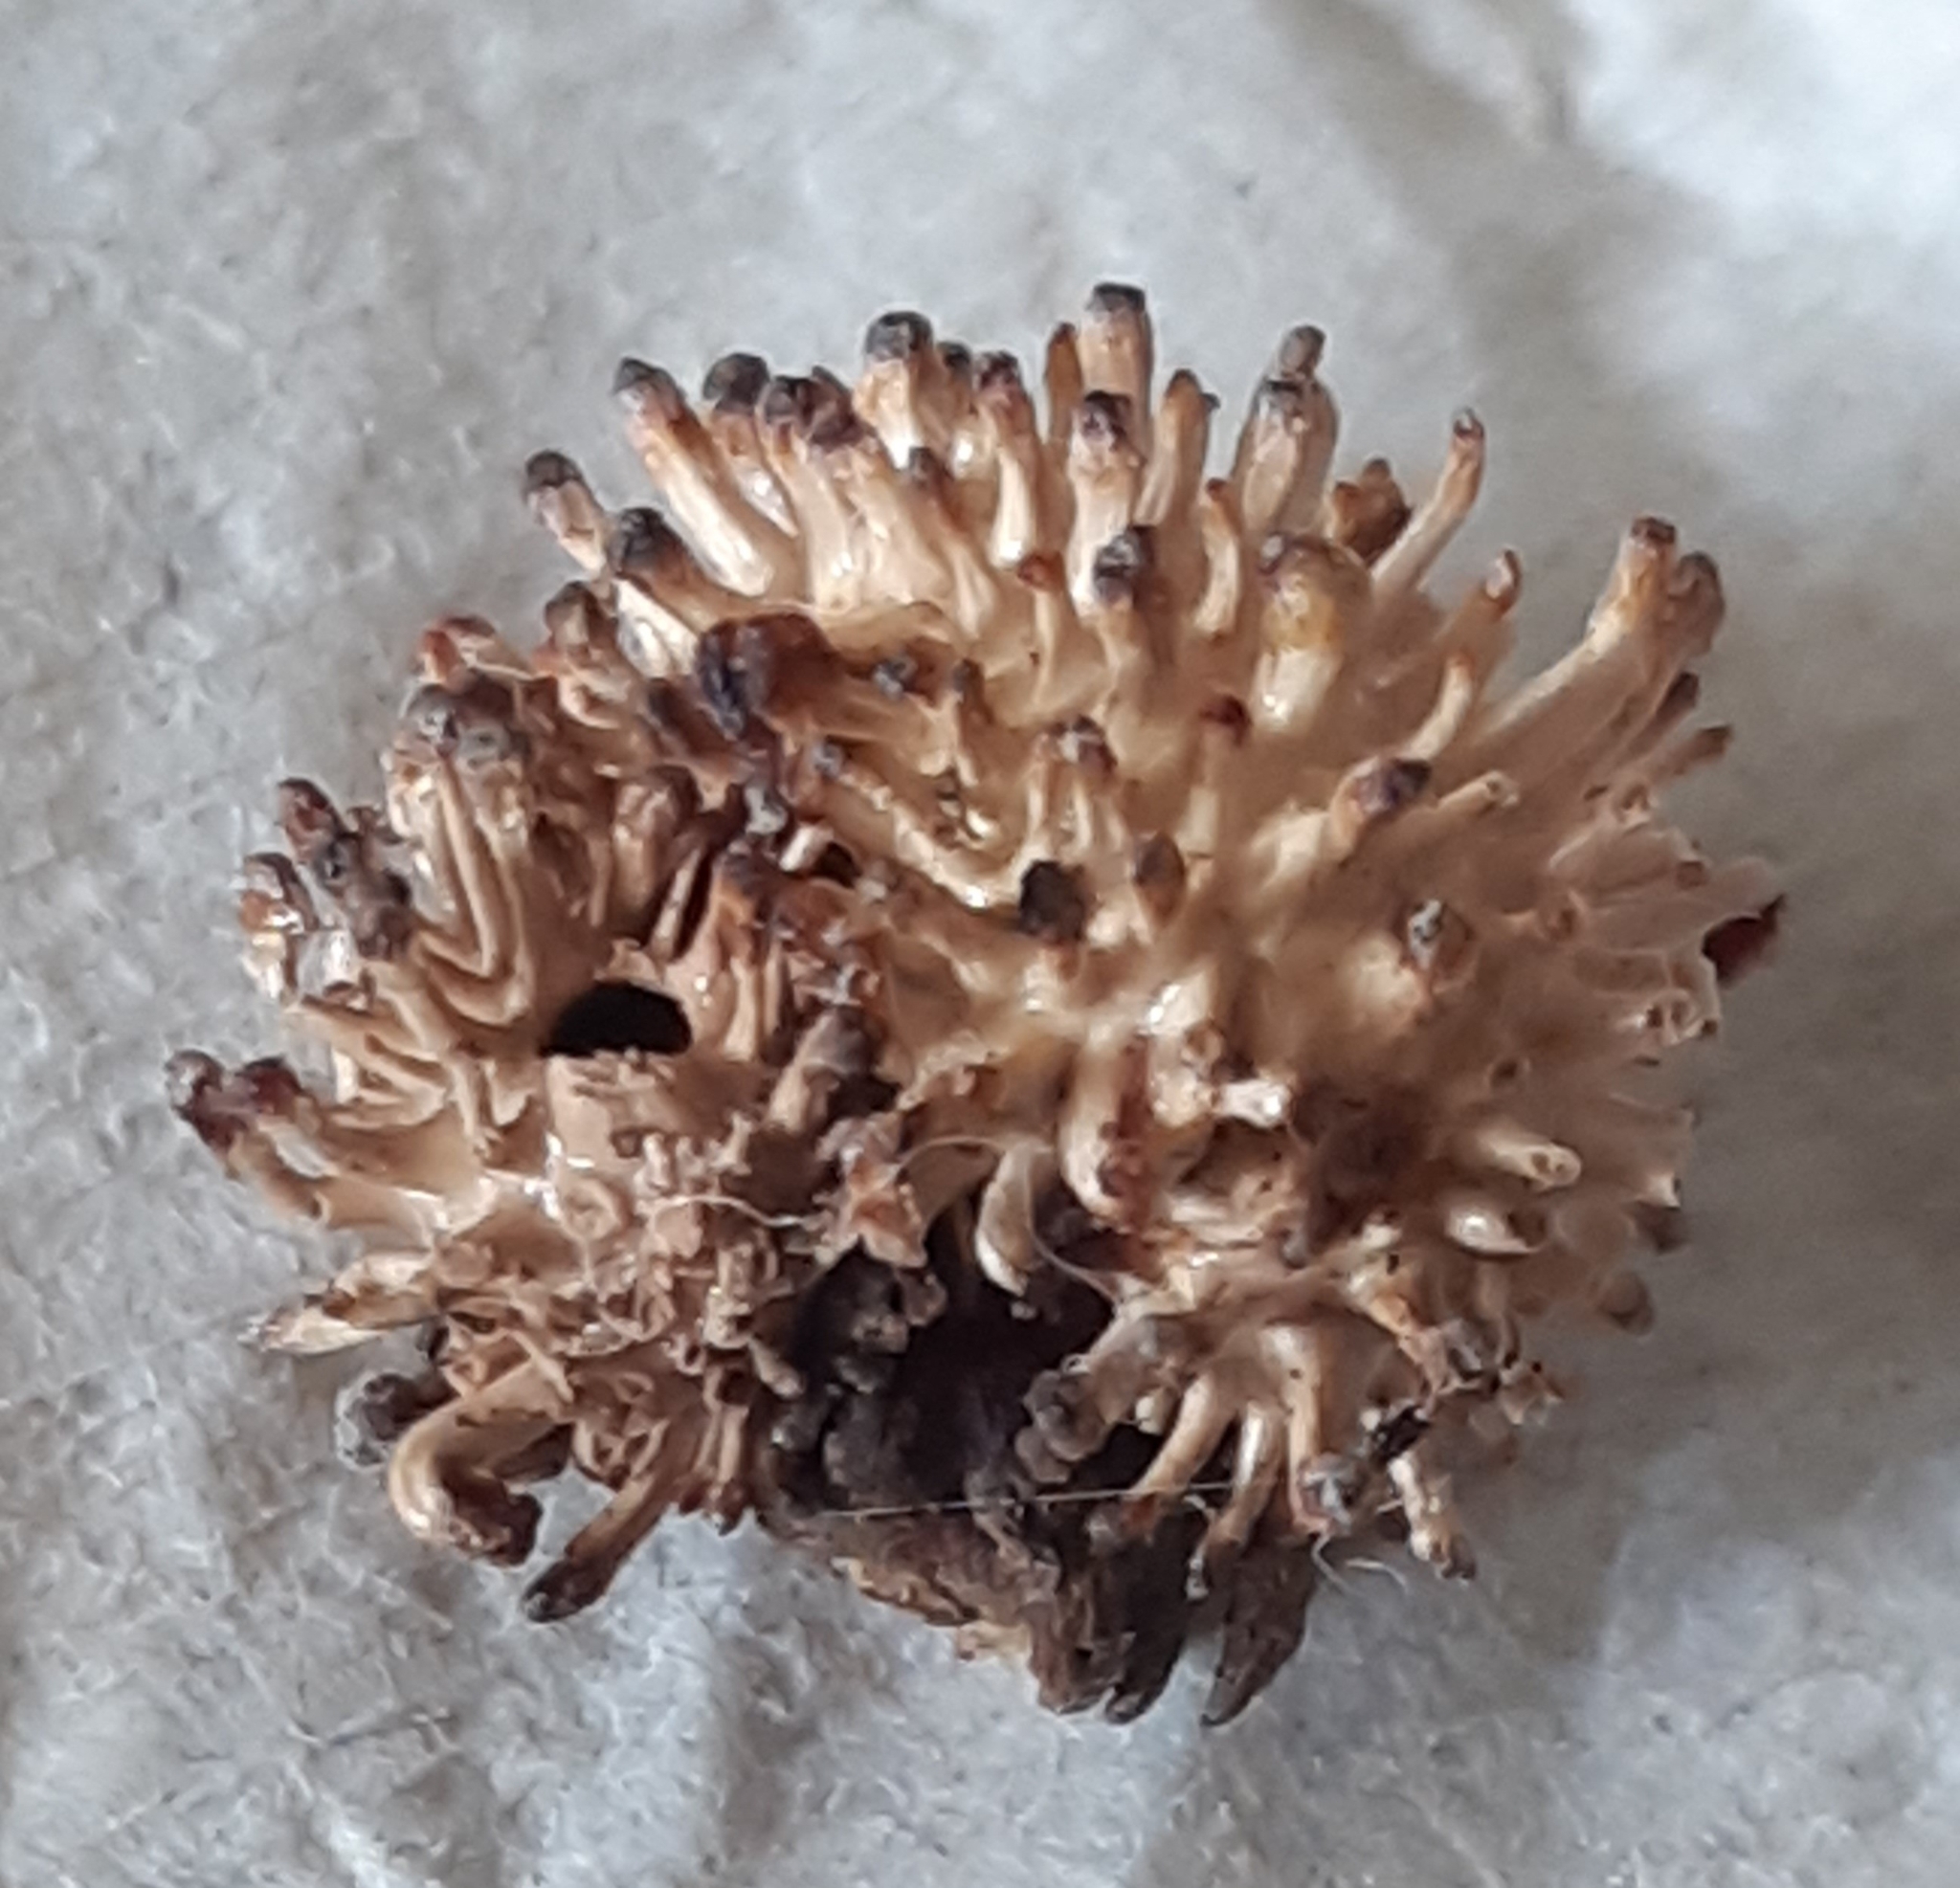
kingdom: Animalia
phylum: Arthropoda
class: Insecta
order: Hymenoptera
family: Cynipidae
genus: Andricus
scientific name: Andricus lucidus
